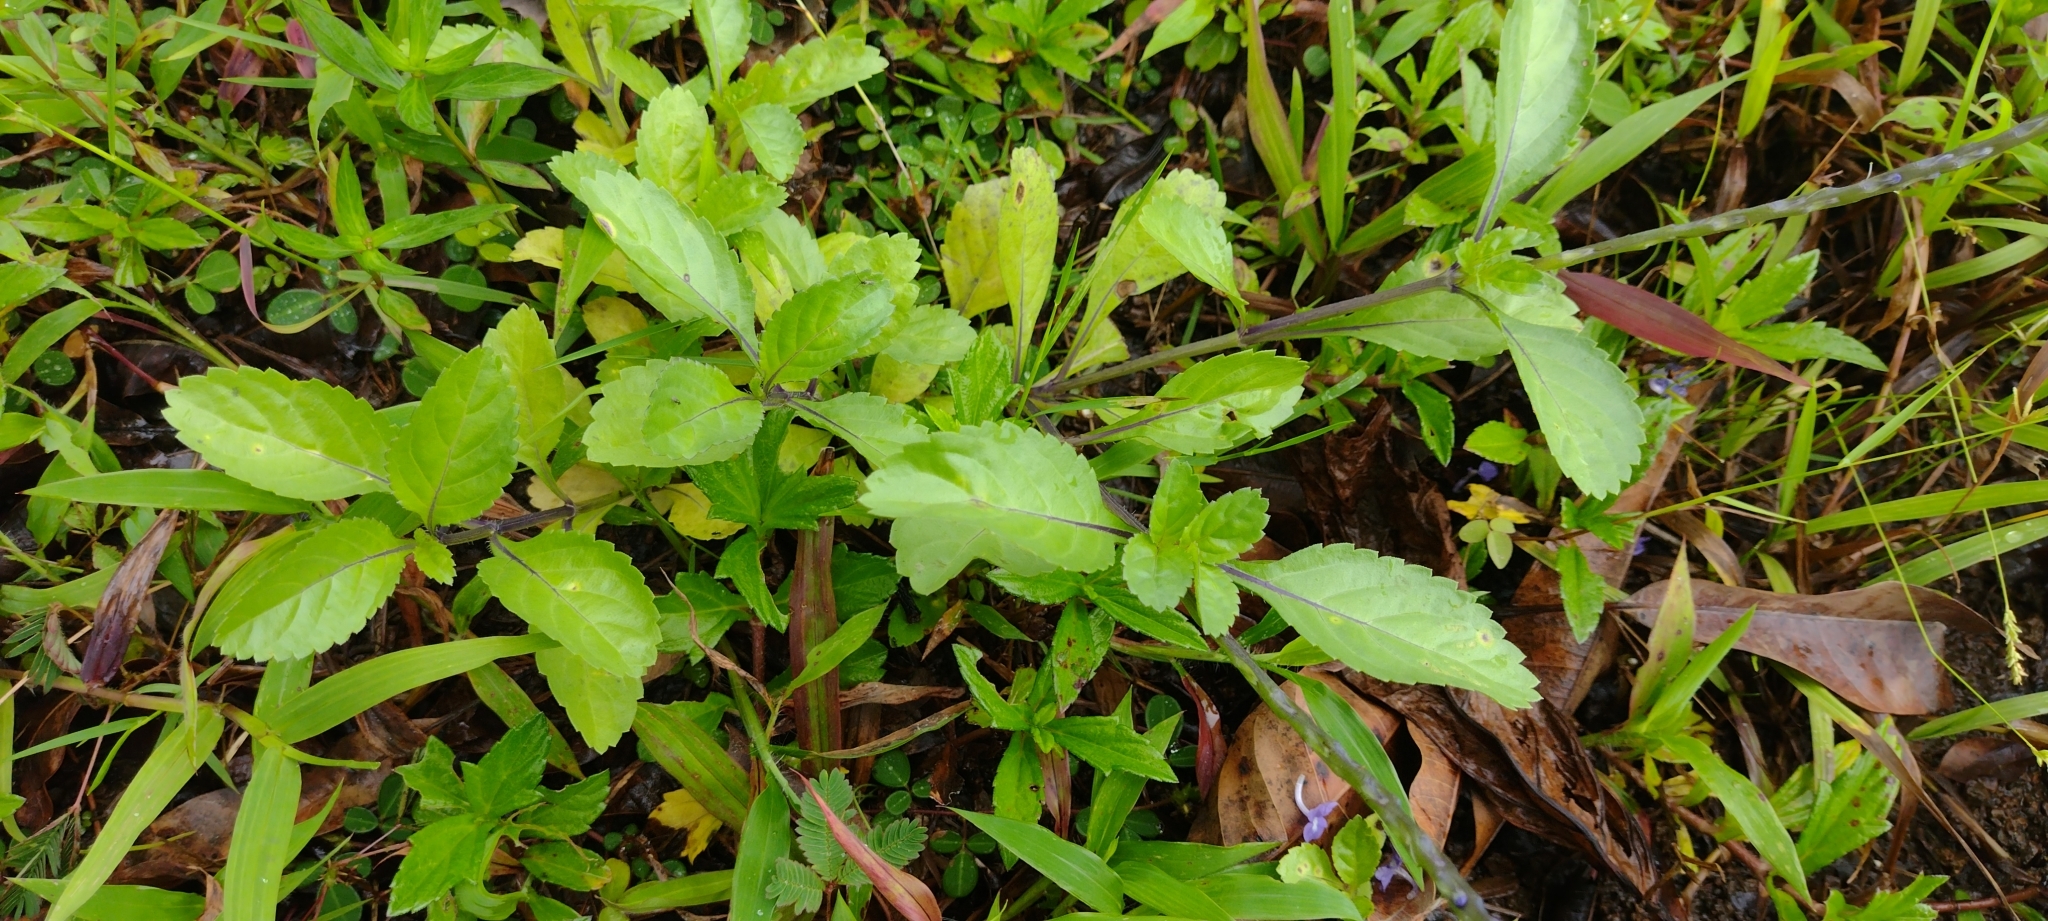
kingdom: Plantae
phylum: Tracheophyta
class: Magnoliopsida
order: Lamiales
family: Verbenaceae
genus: Stachytarpheta
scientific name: Stachytarpheta jamaicensis
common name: Light-blue snakeweed
